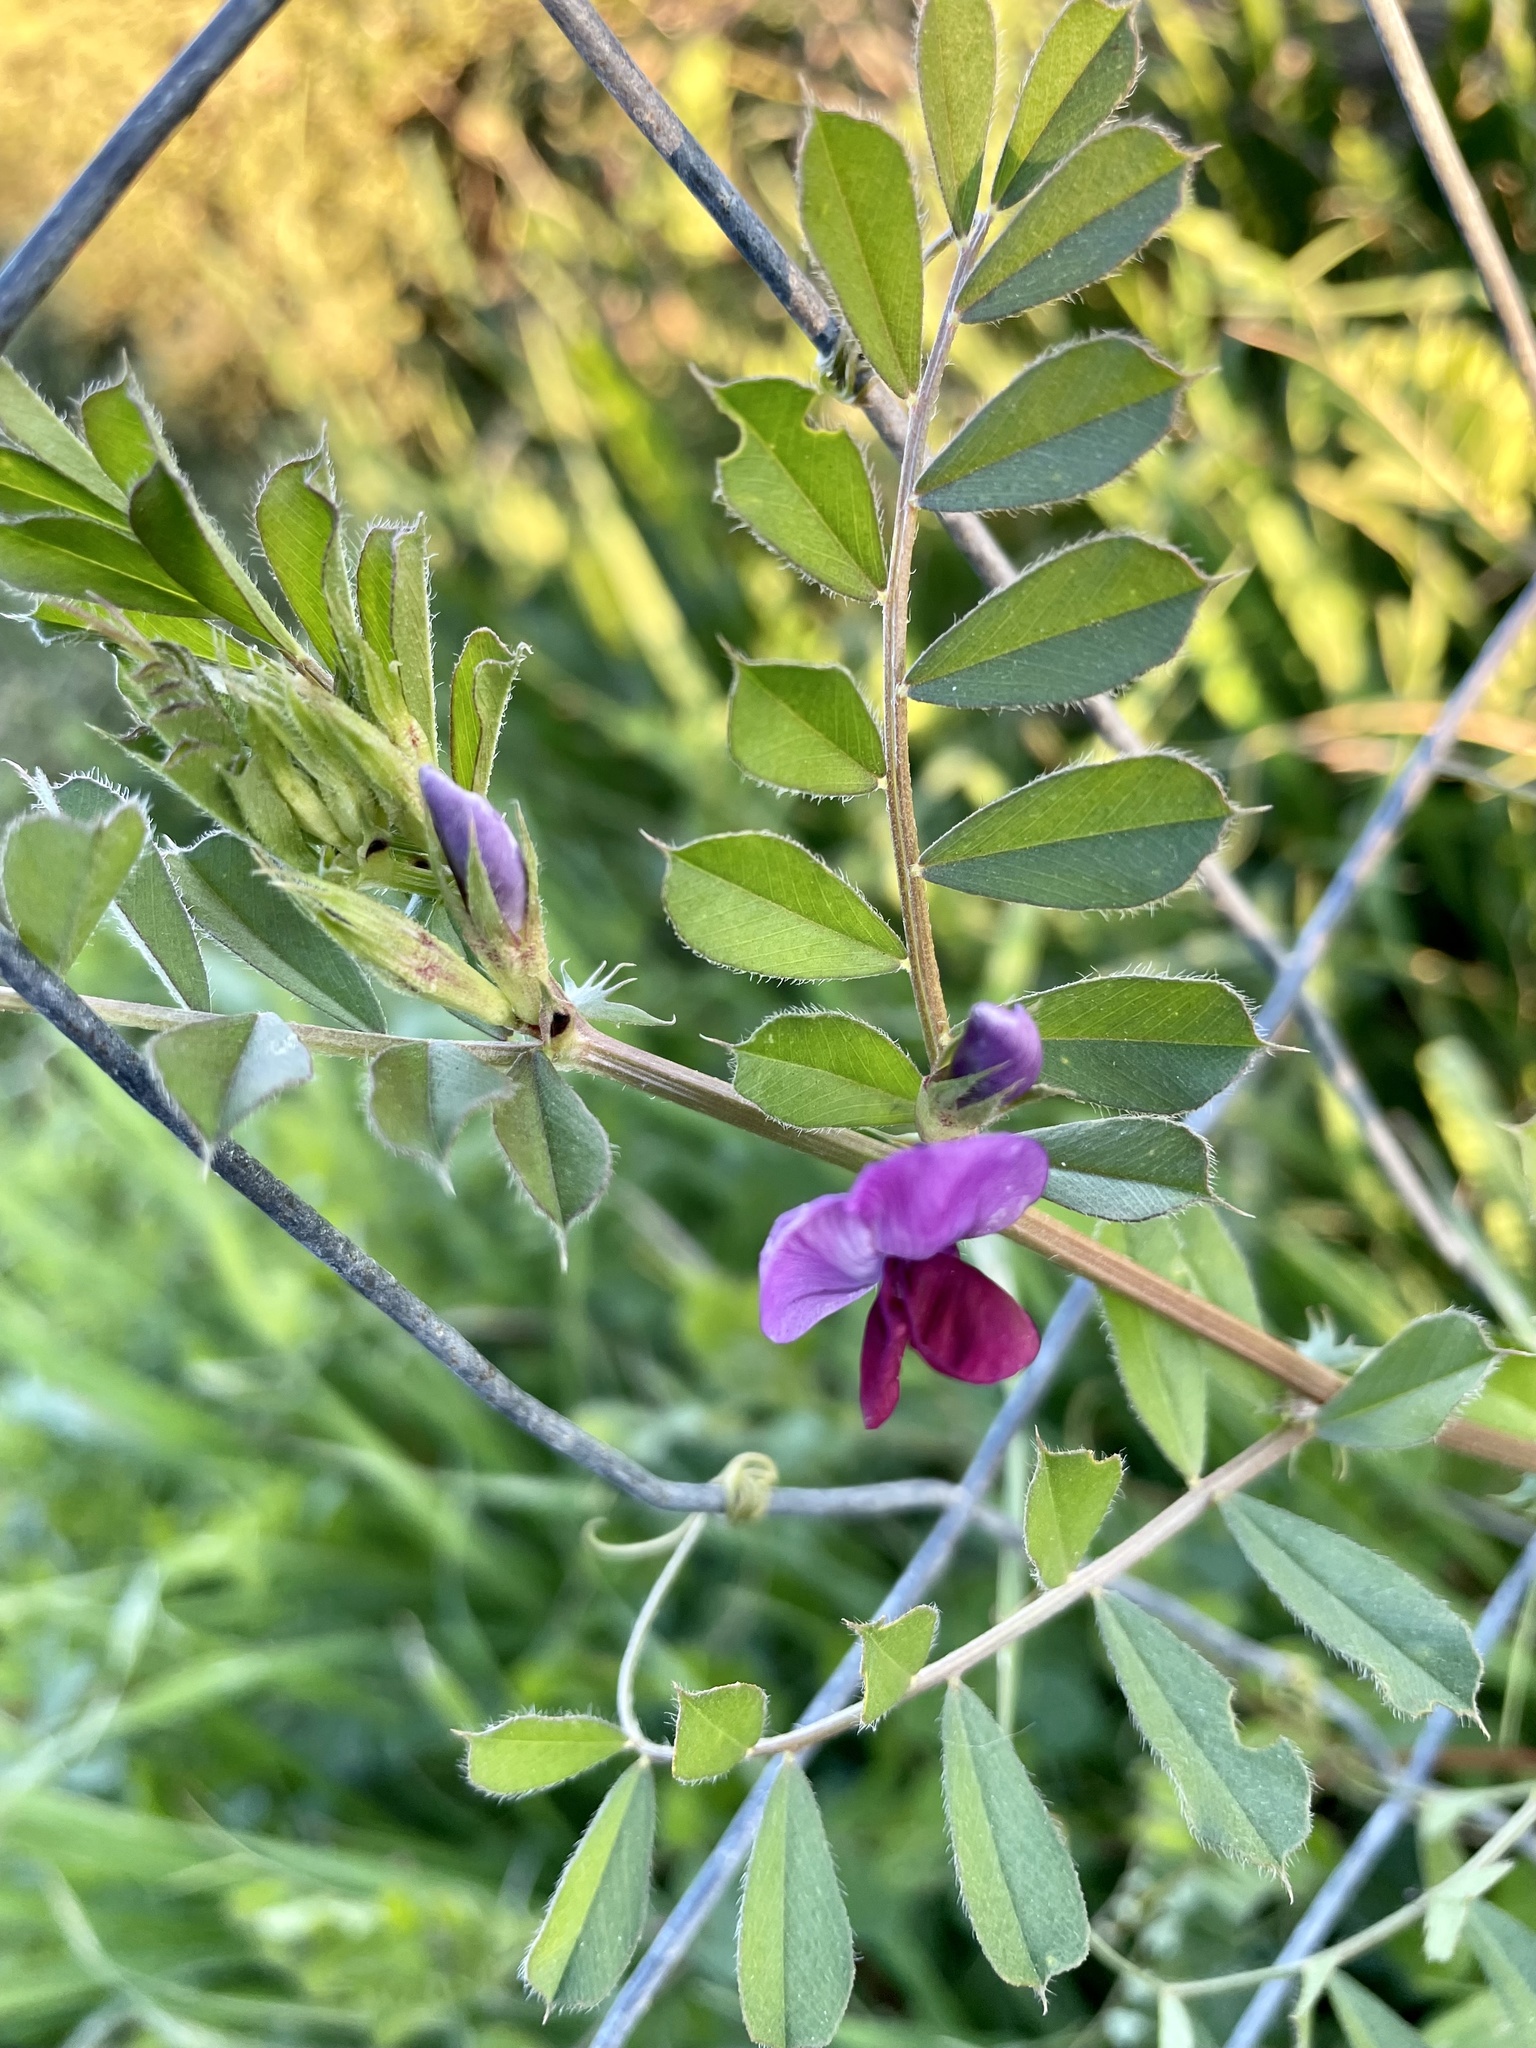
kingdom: Plantae
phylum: Tracheophyta
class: Magnoliopsida
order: Fabales
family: Fabaceae
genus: Vicia
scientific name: Vicia sativa
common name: Garden vetch
